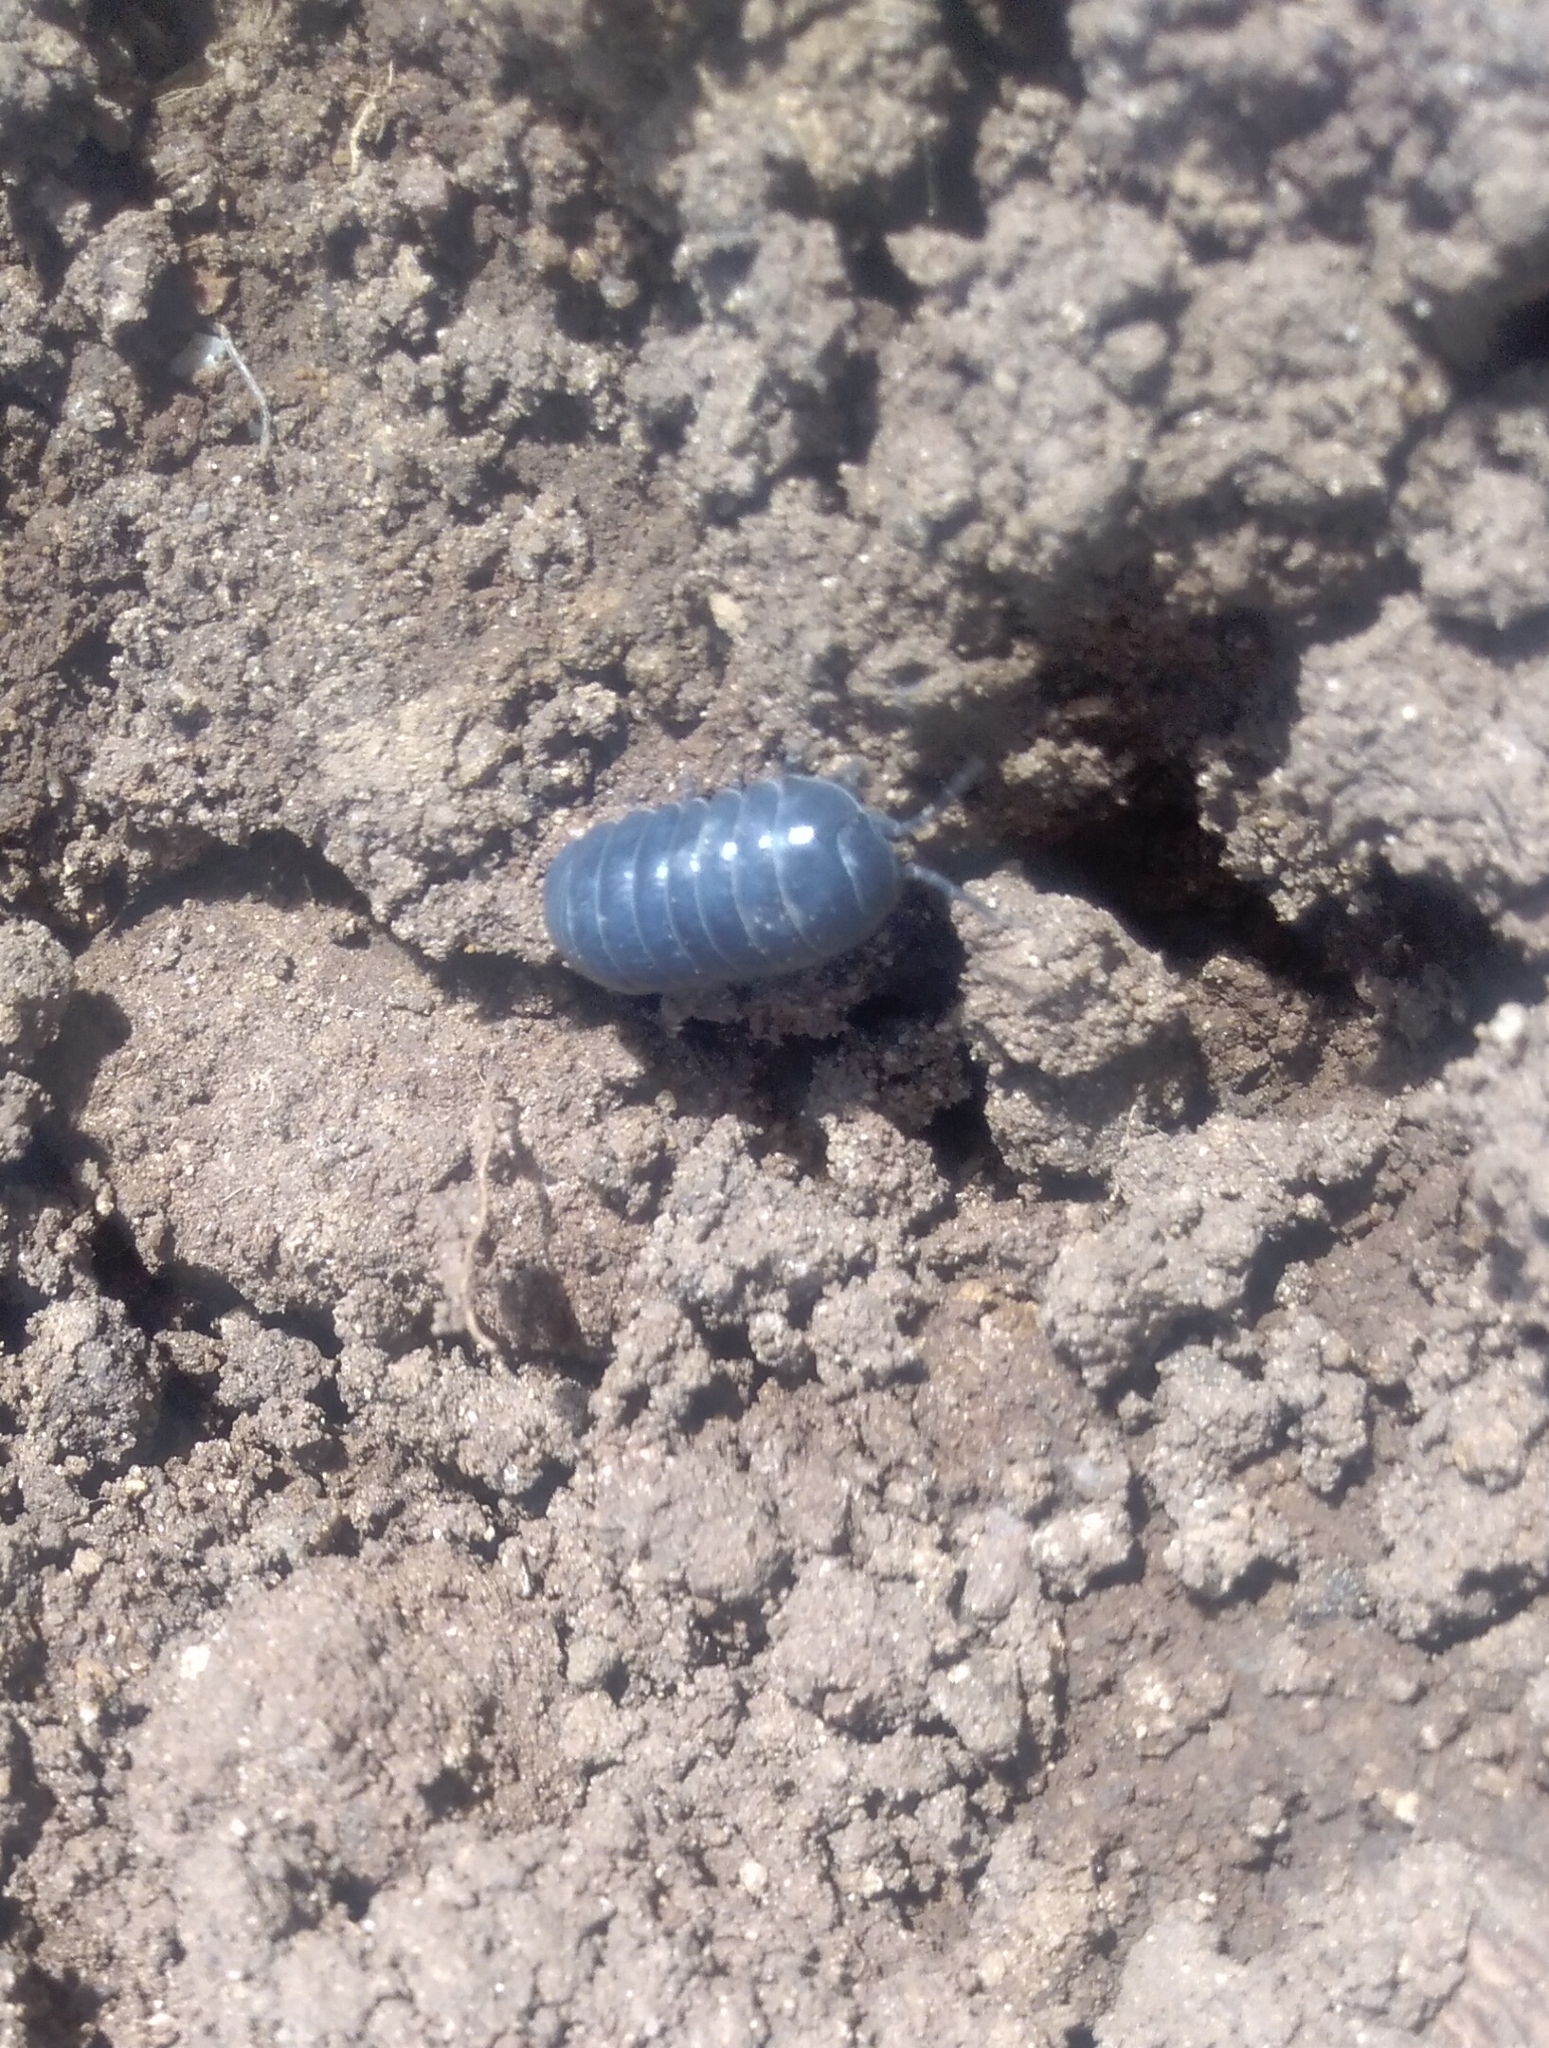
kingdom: Animalia
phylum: Arthropoda
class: Malacostraca
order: Isopoda
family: Armadillidiidae
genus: Armadillidium
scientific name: Armadillidium vulgare
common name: Common pill woodlouse
